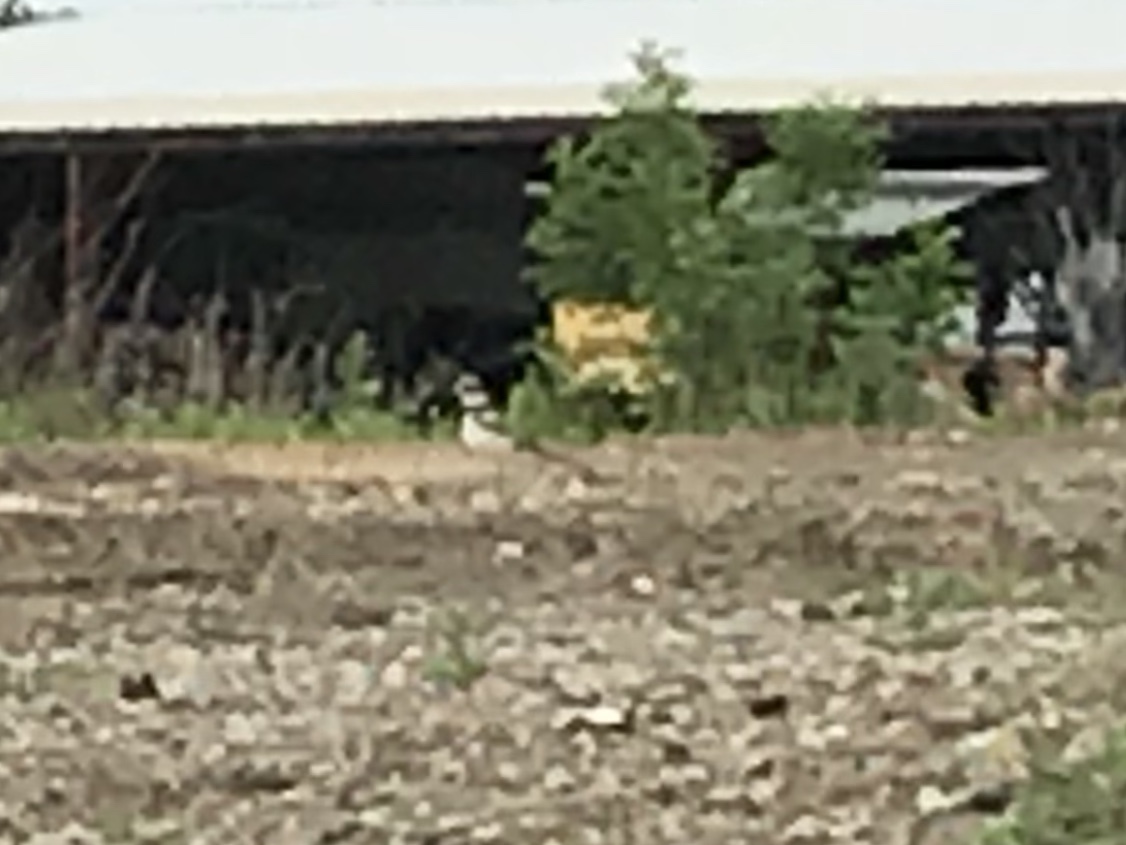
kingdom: Animalia
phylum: Chordata
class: Aves
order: Charadriiformes
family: Charadriidae
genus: Charadrius
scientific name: Charadrius vociferus
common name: Killdeer
